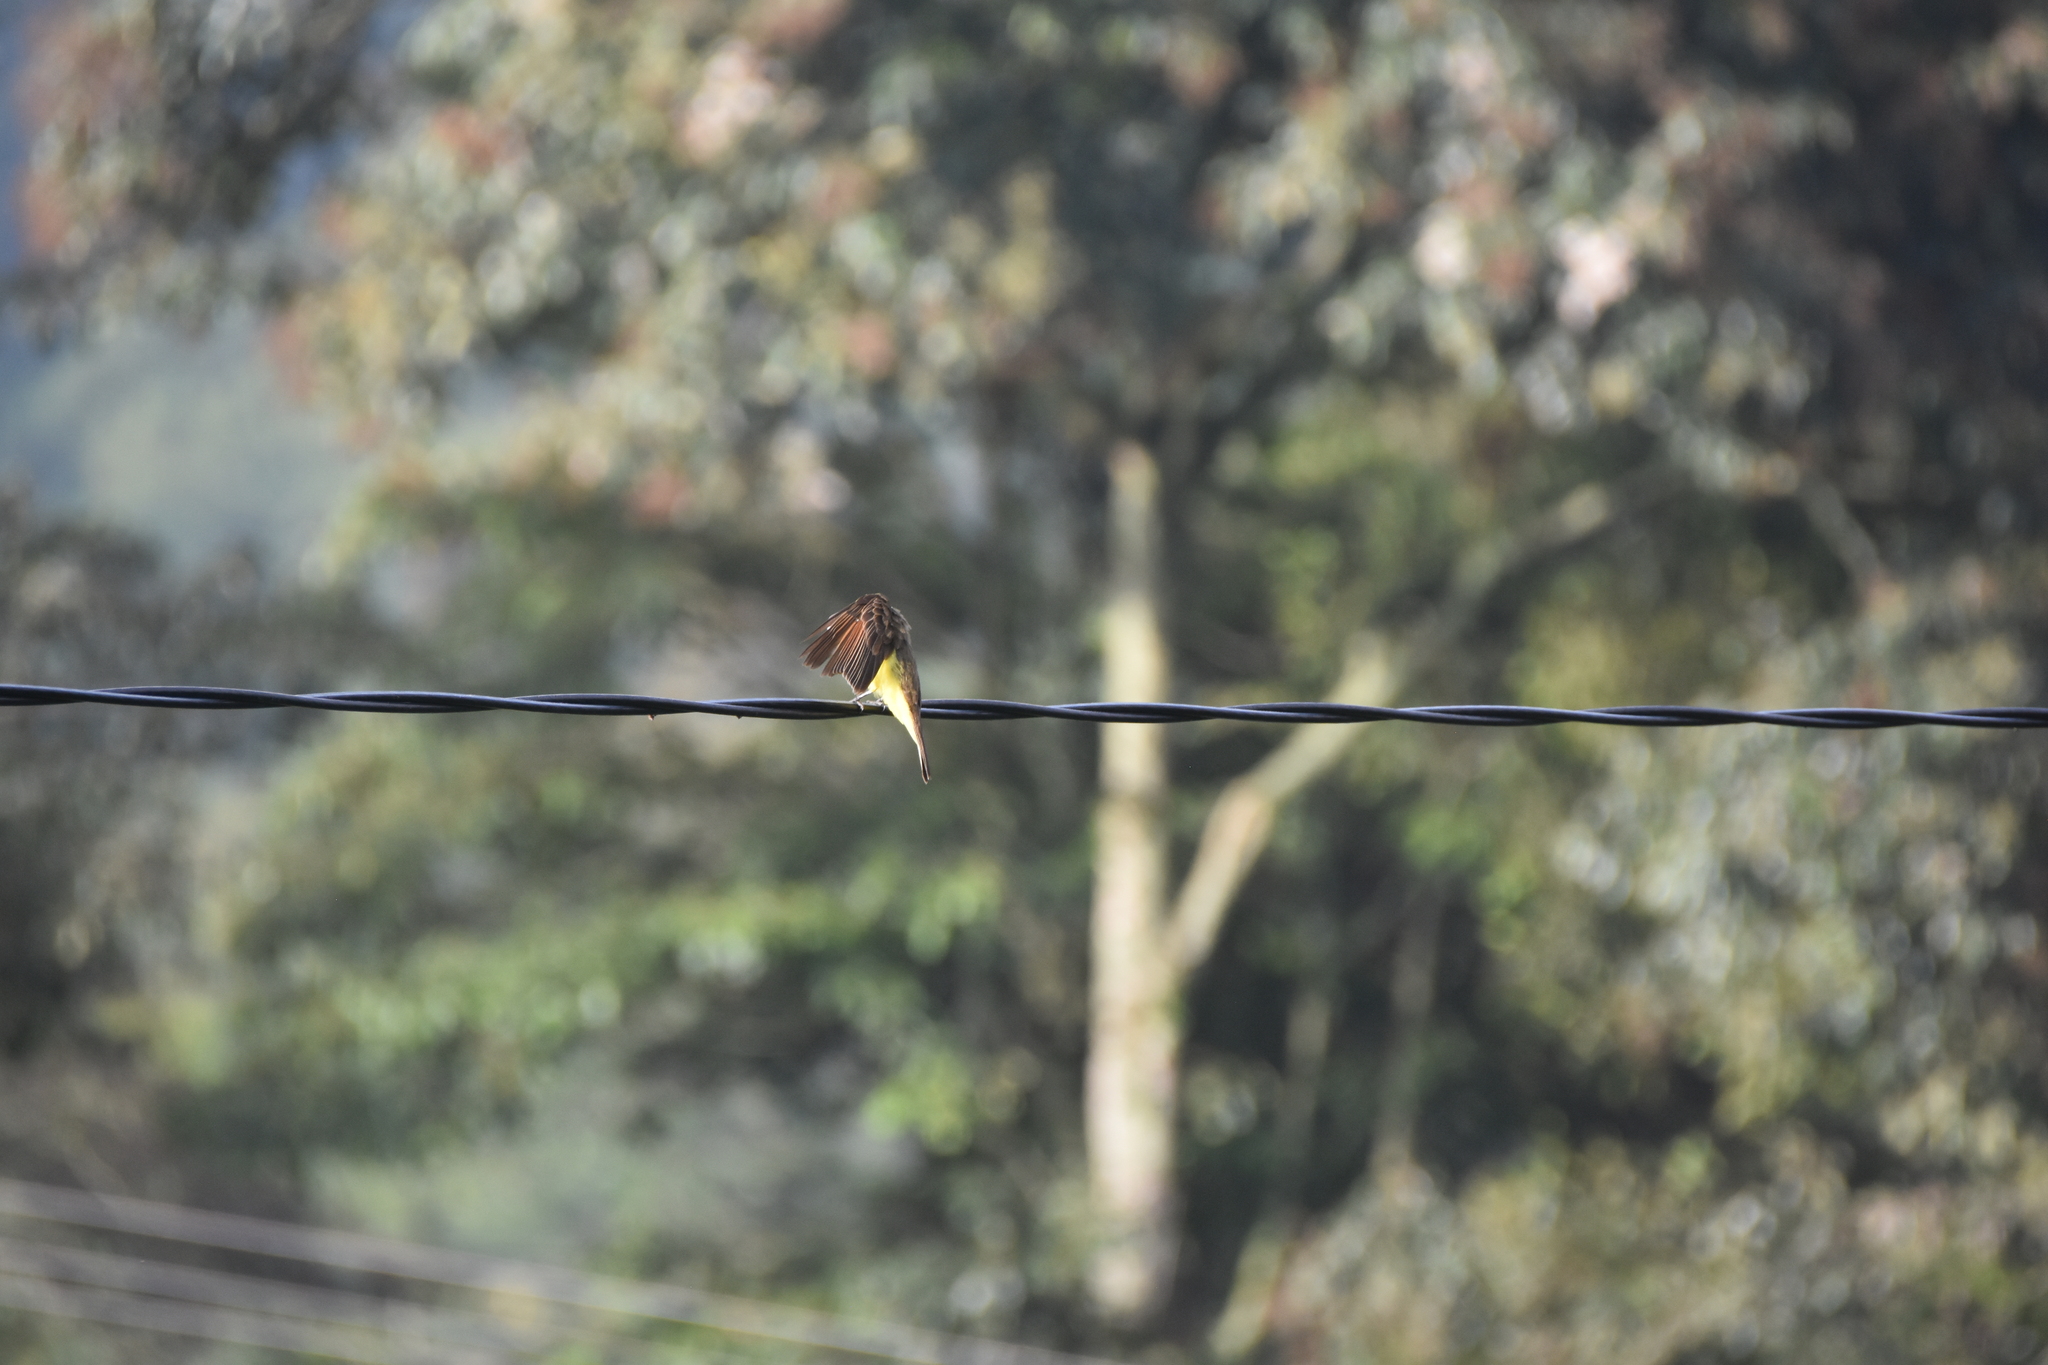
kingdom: Animalia
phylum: Chordata
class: Aves
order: Passeriformes
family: Tyrannidae
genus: Myiozetetes
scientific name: Myiozetetes cayanensis
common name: Rusty-margined flycatcher
